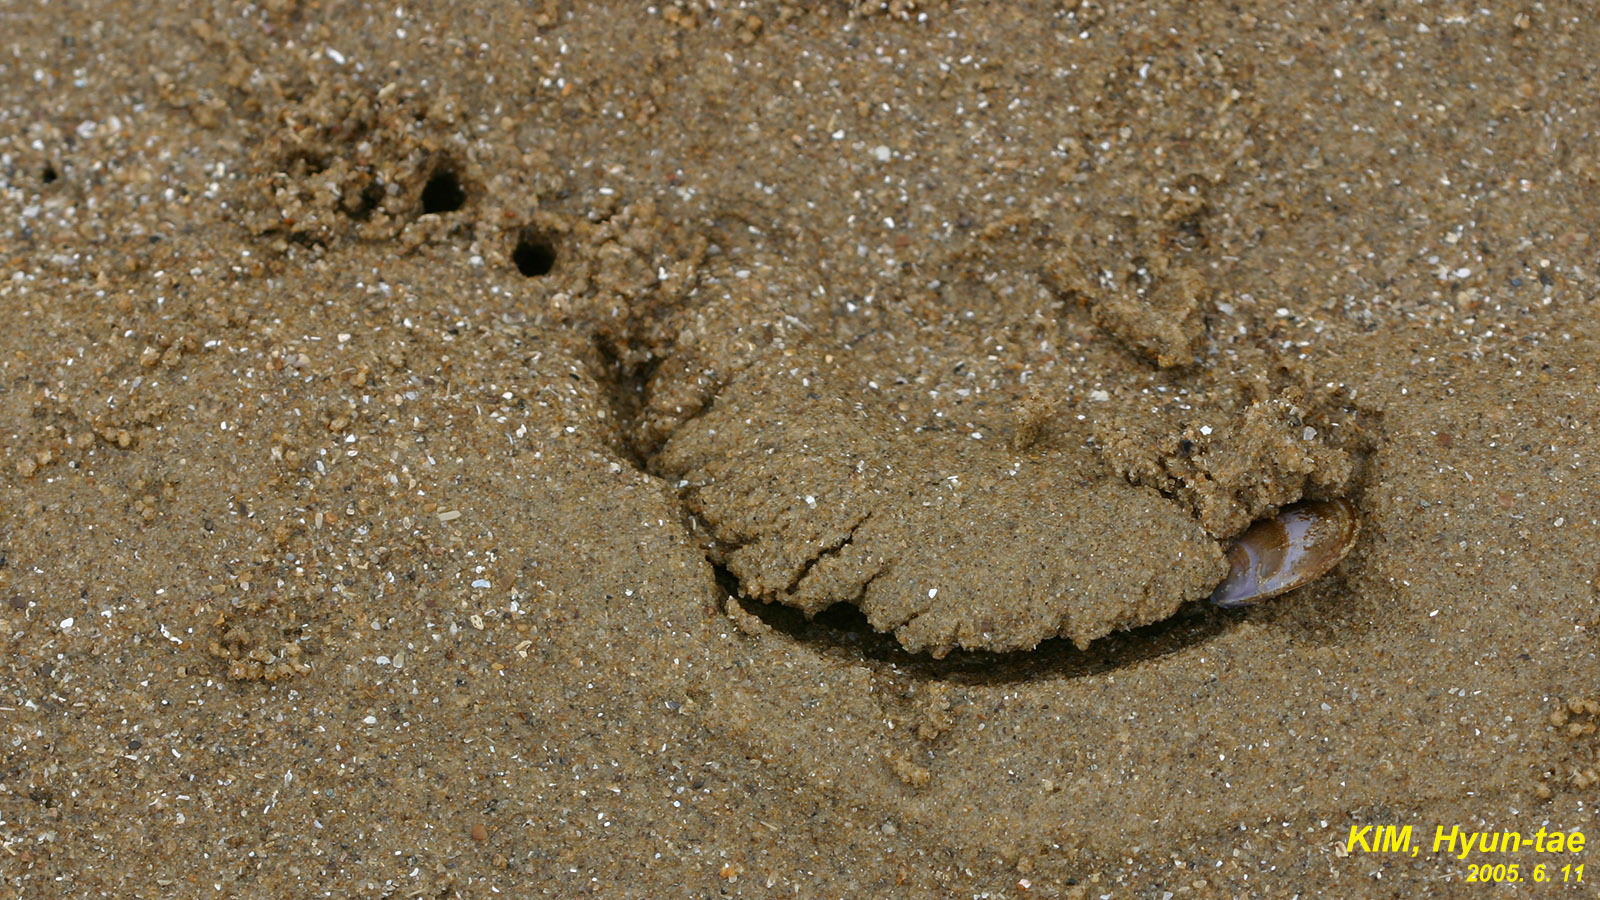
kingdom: Animalia
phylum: Mollusca
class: Bivalvia
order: Cardiida
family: Psammobiidae
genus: Nuttallia
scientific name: Nuttallia obscurata
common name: Purple mahogany-clam
